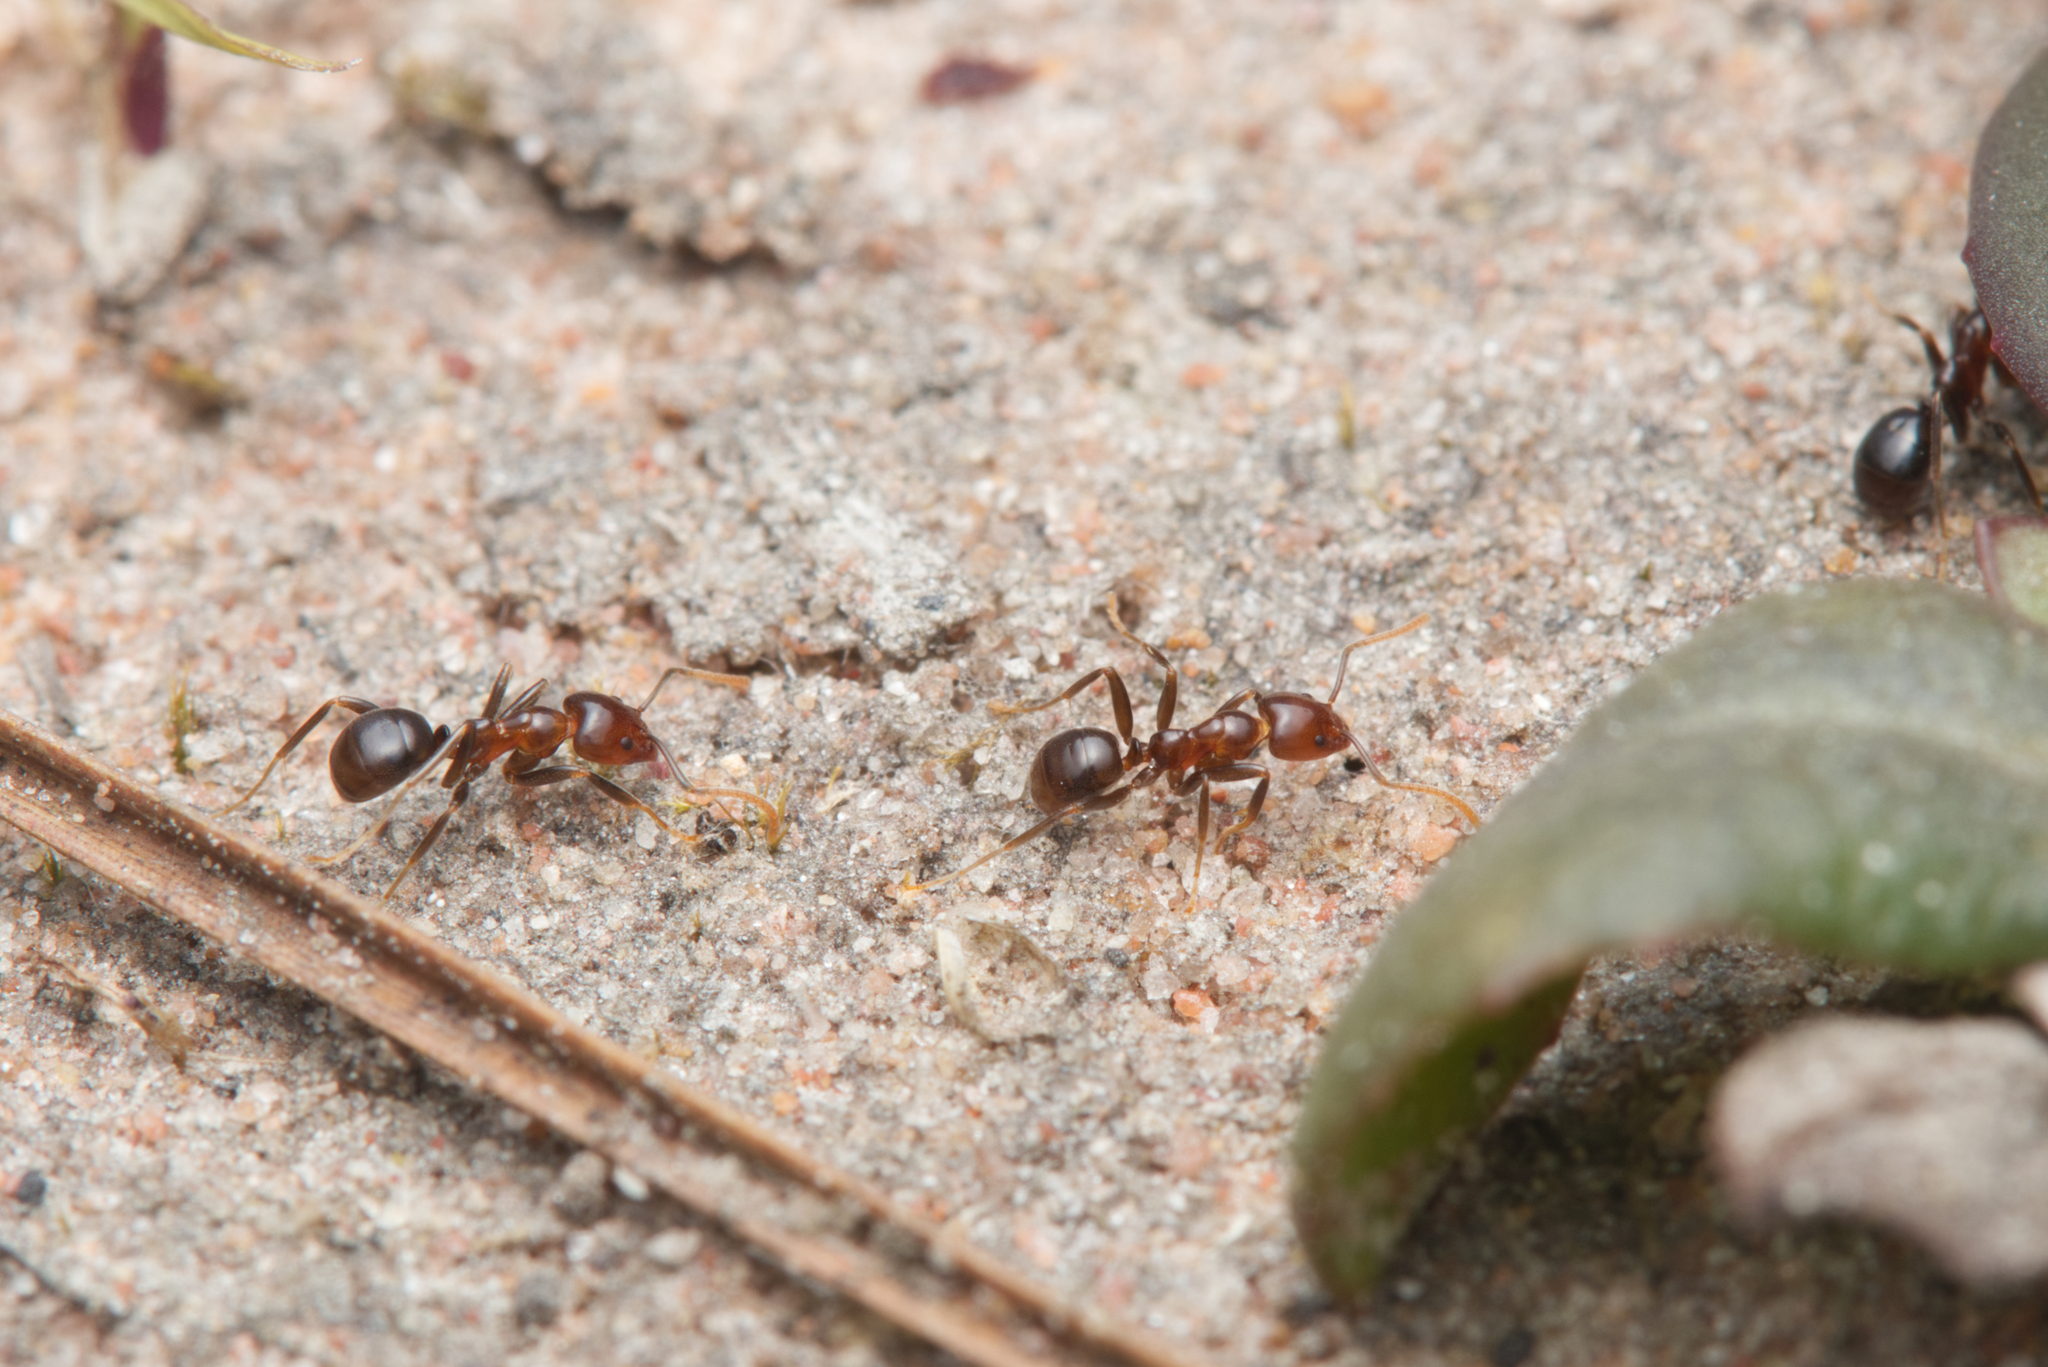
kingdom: Animalia
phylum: Arthropoda
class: Insecta
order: Hymenoptera
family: Formicidae
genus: Papyrius
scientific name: Papyrius nitidus
